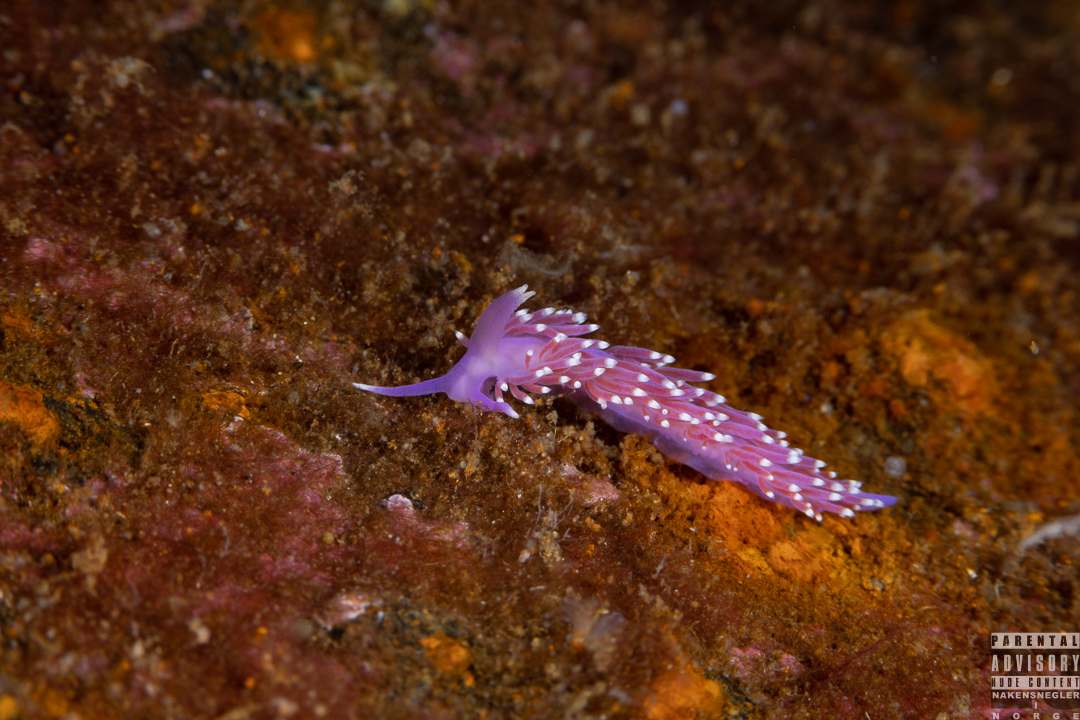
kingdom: Animalia
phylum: Mollusca
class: Gastropoda
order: Nudibranchia
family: Flabellinidae
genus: Edmundsella
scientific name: Edmundsella pedata
